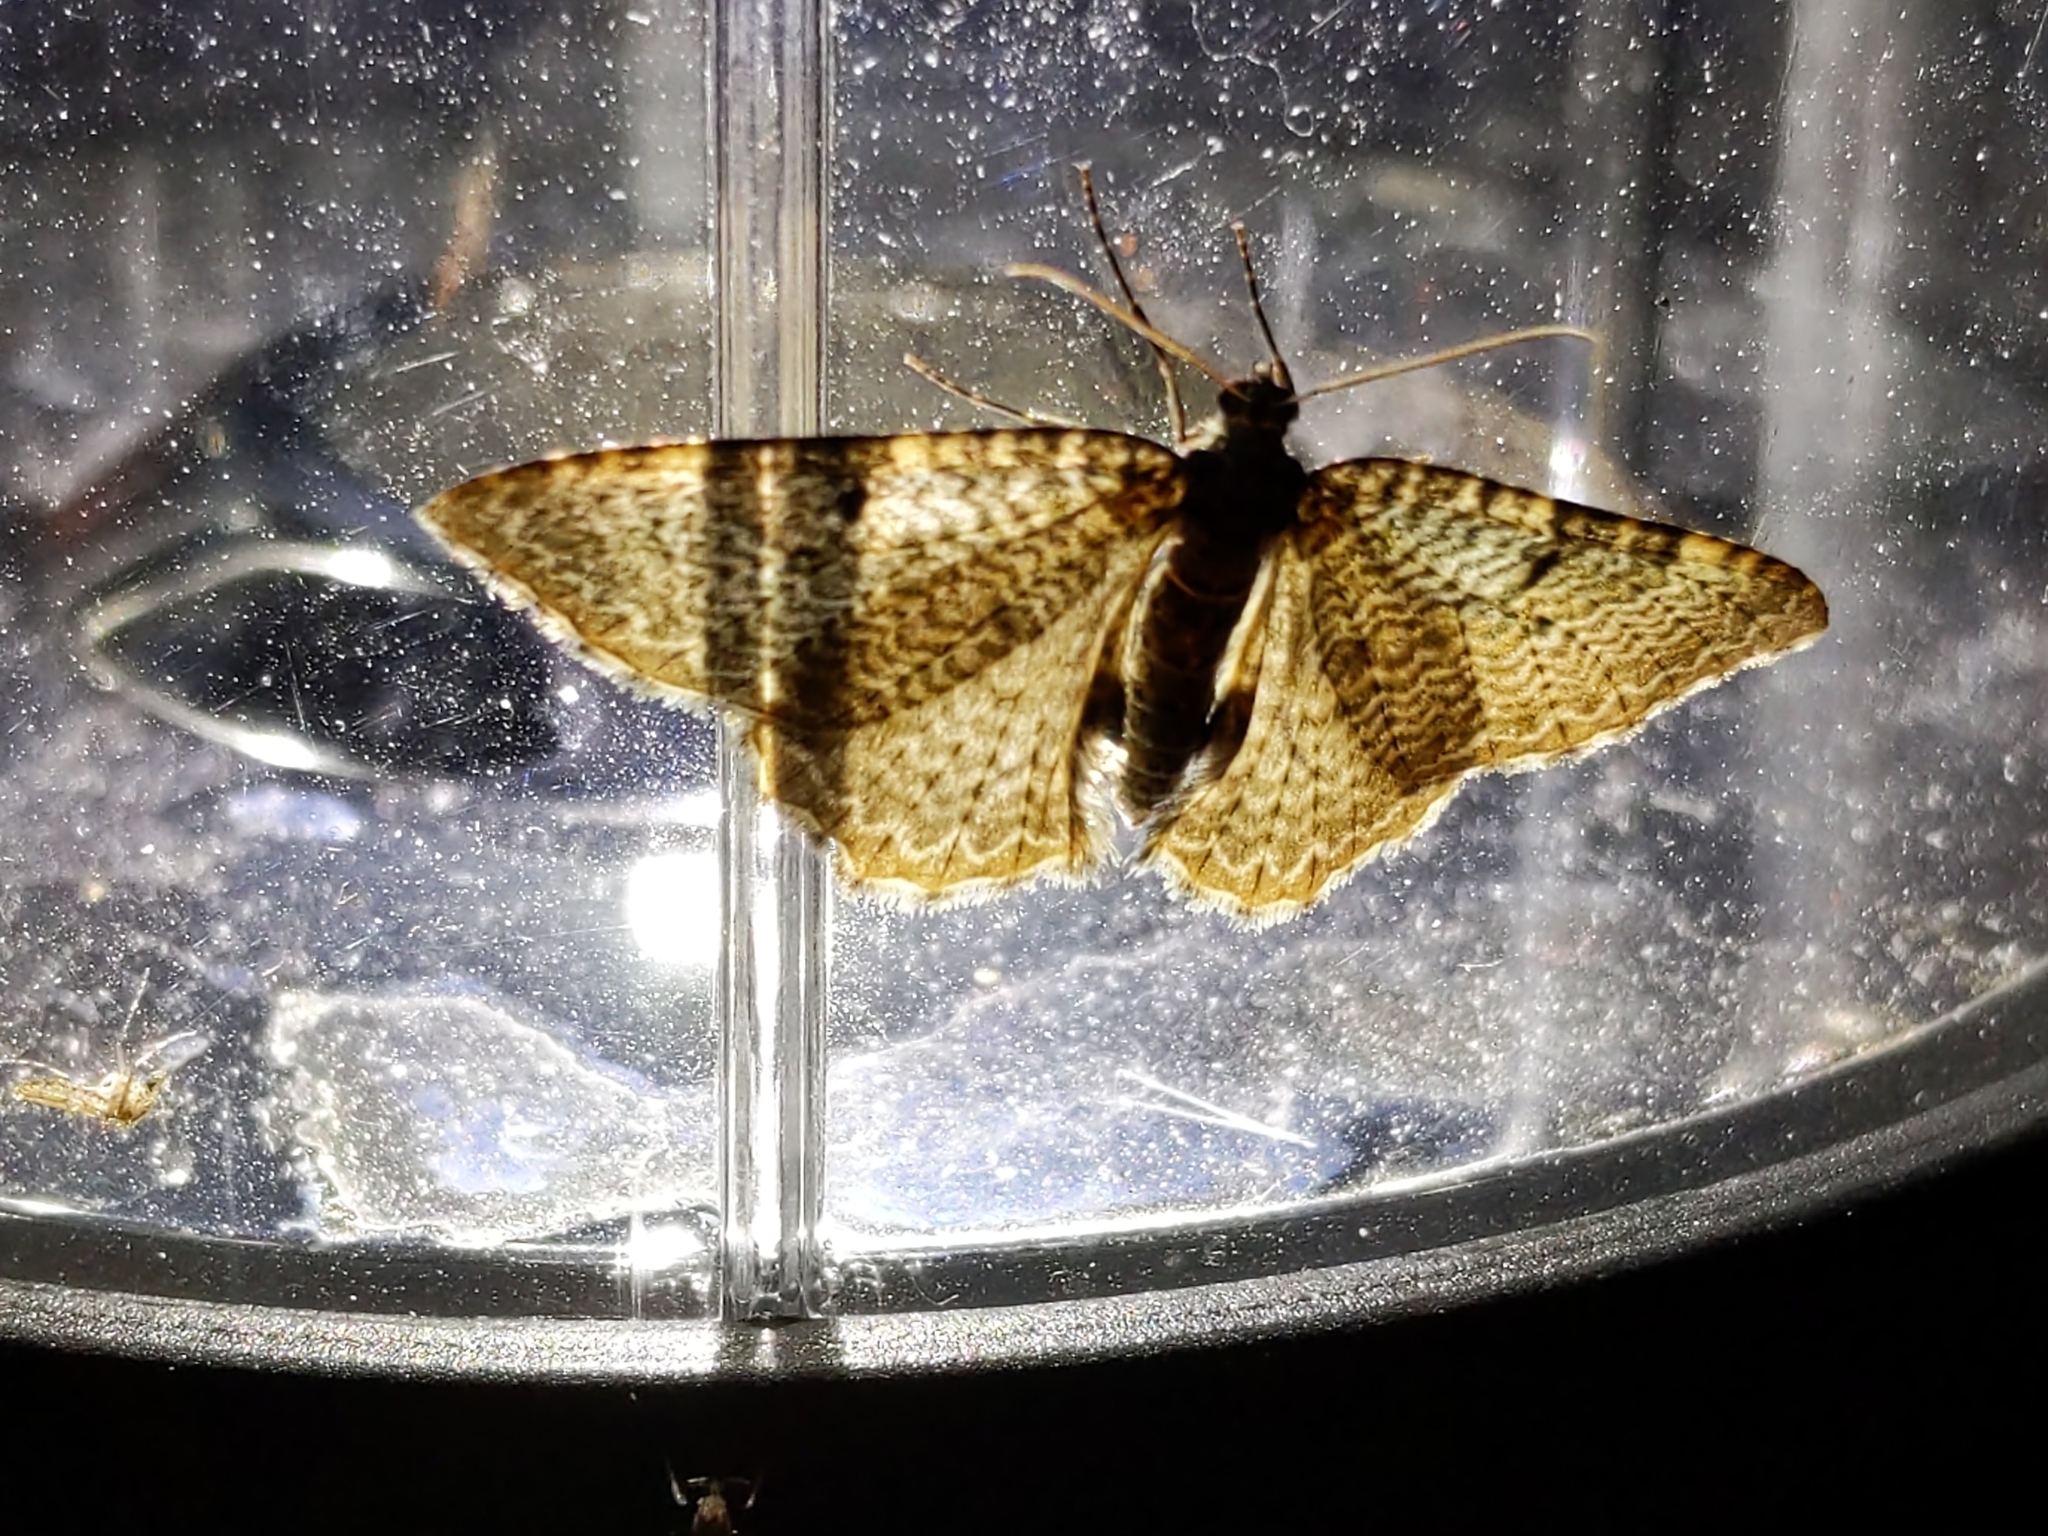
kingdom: Animalia
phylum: Arthropoda
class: Insecta
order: Lepidoptera
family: Geometridae
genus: Rheumaptera
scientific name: Rheumaptera
